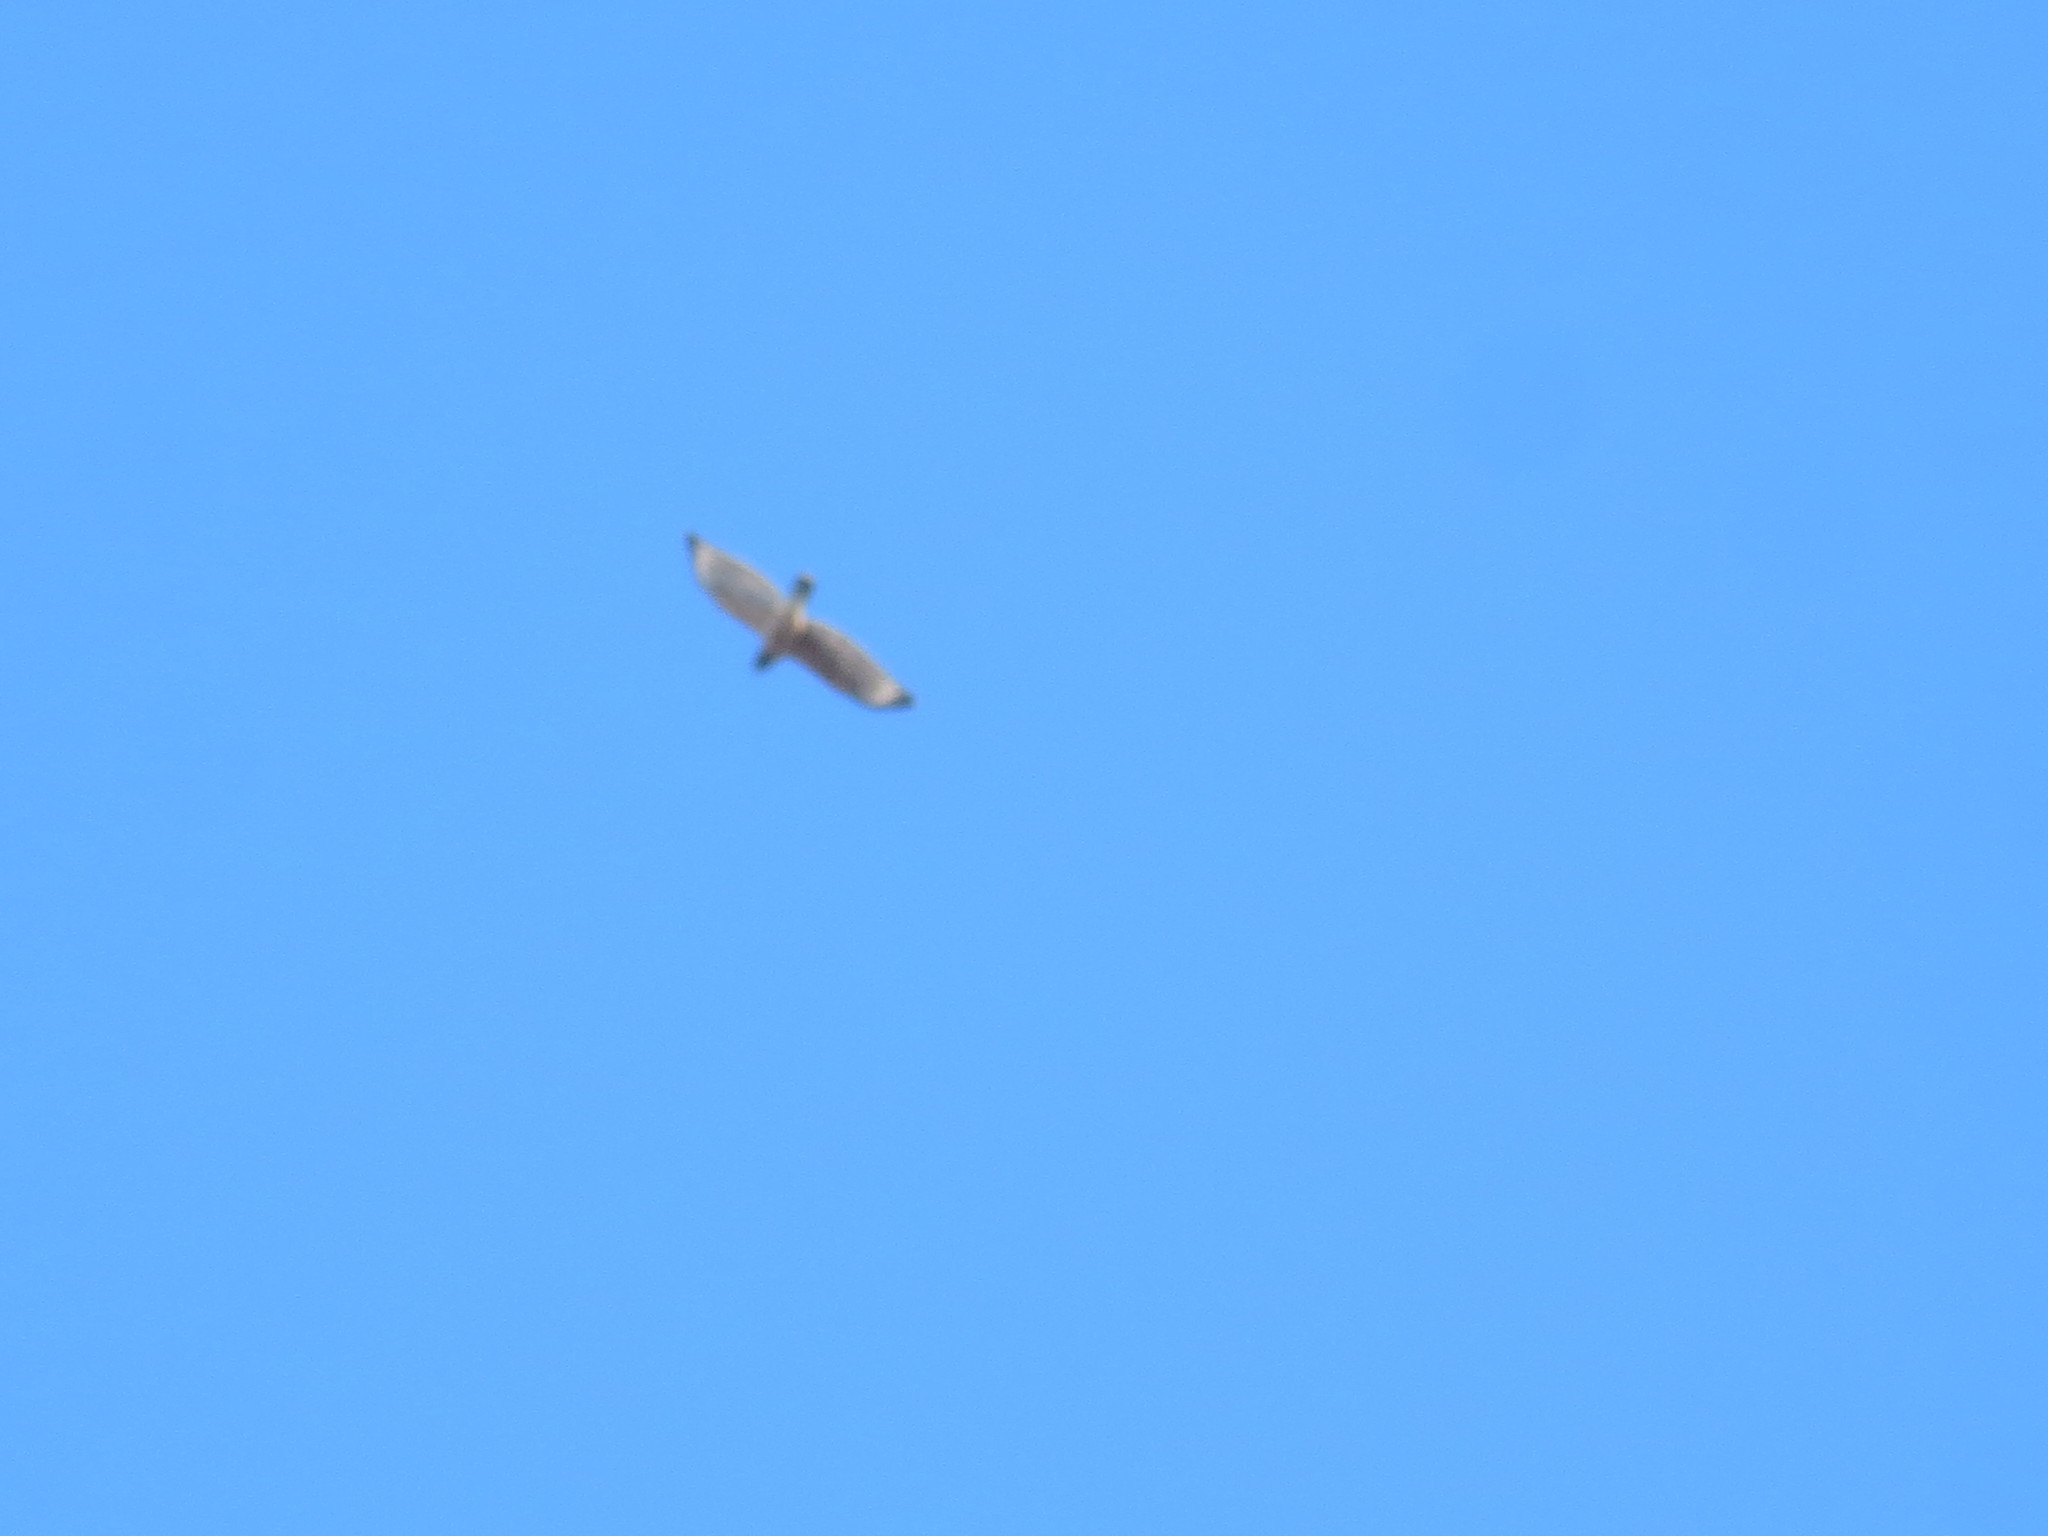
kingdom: Animalia
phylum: Chordata
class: Aves
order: Accipitriformes
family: Accipitridae
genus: Buteo
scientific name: Buteo lineatus
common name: Red-shouldered hawk
